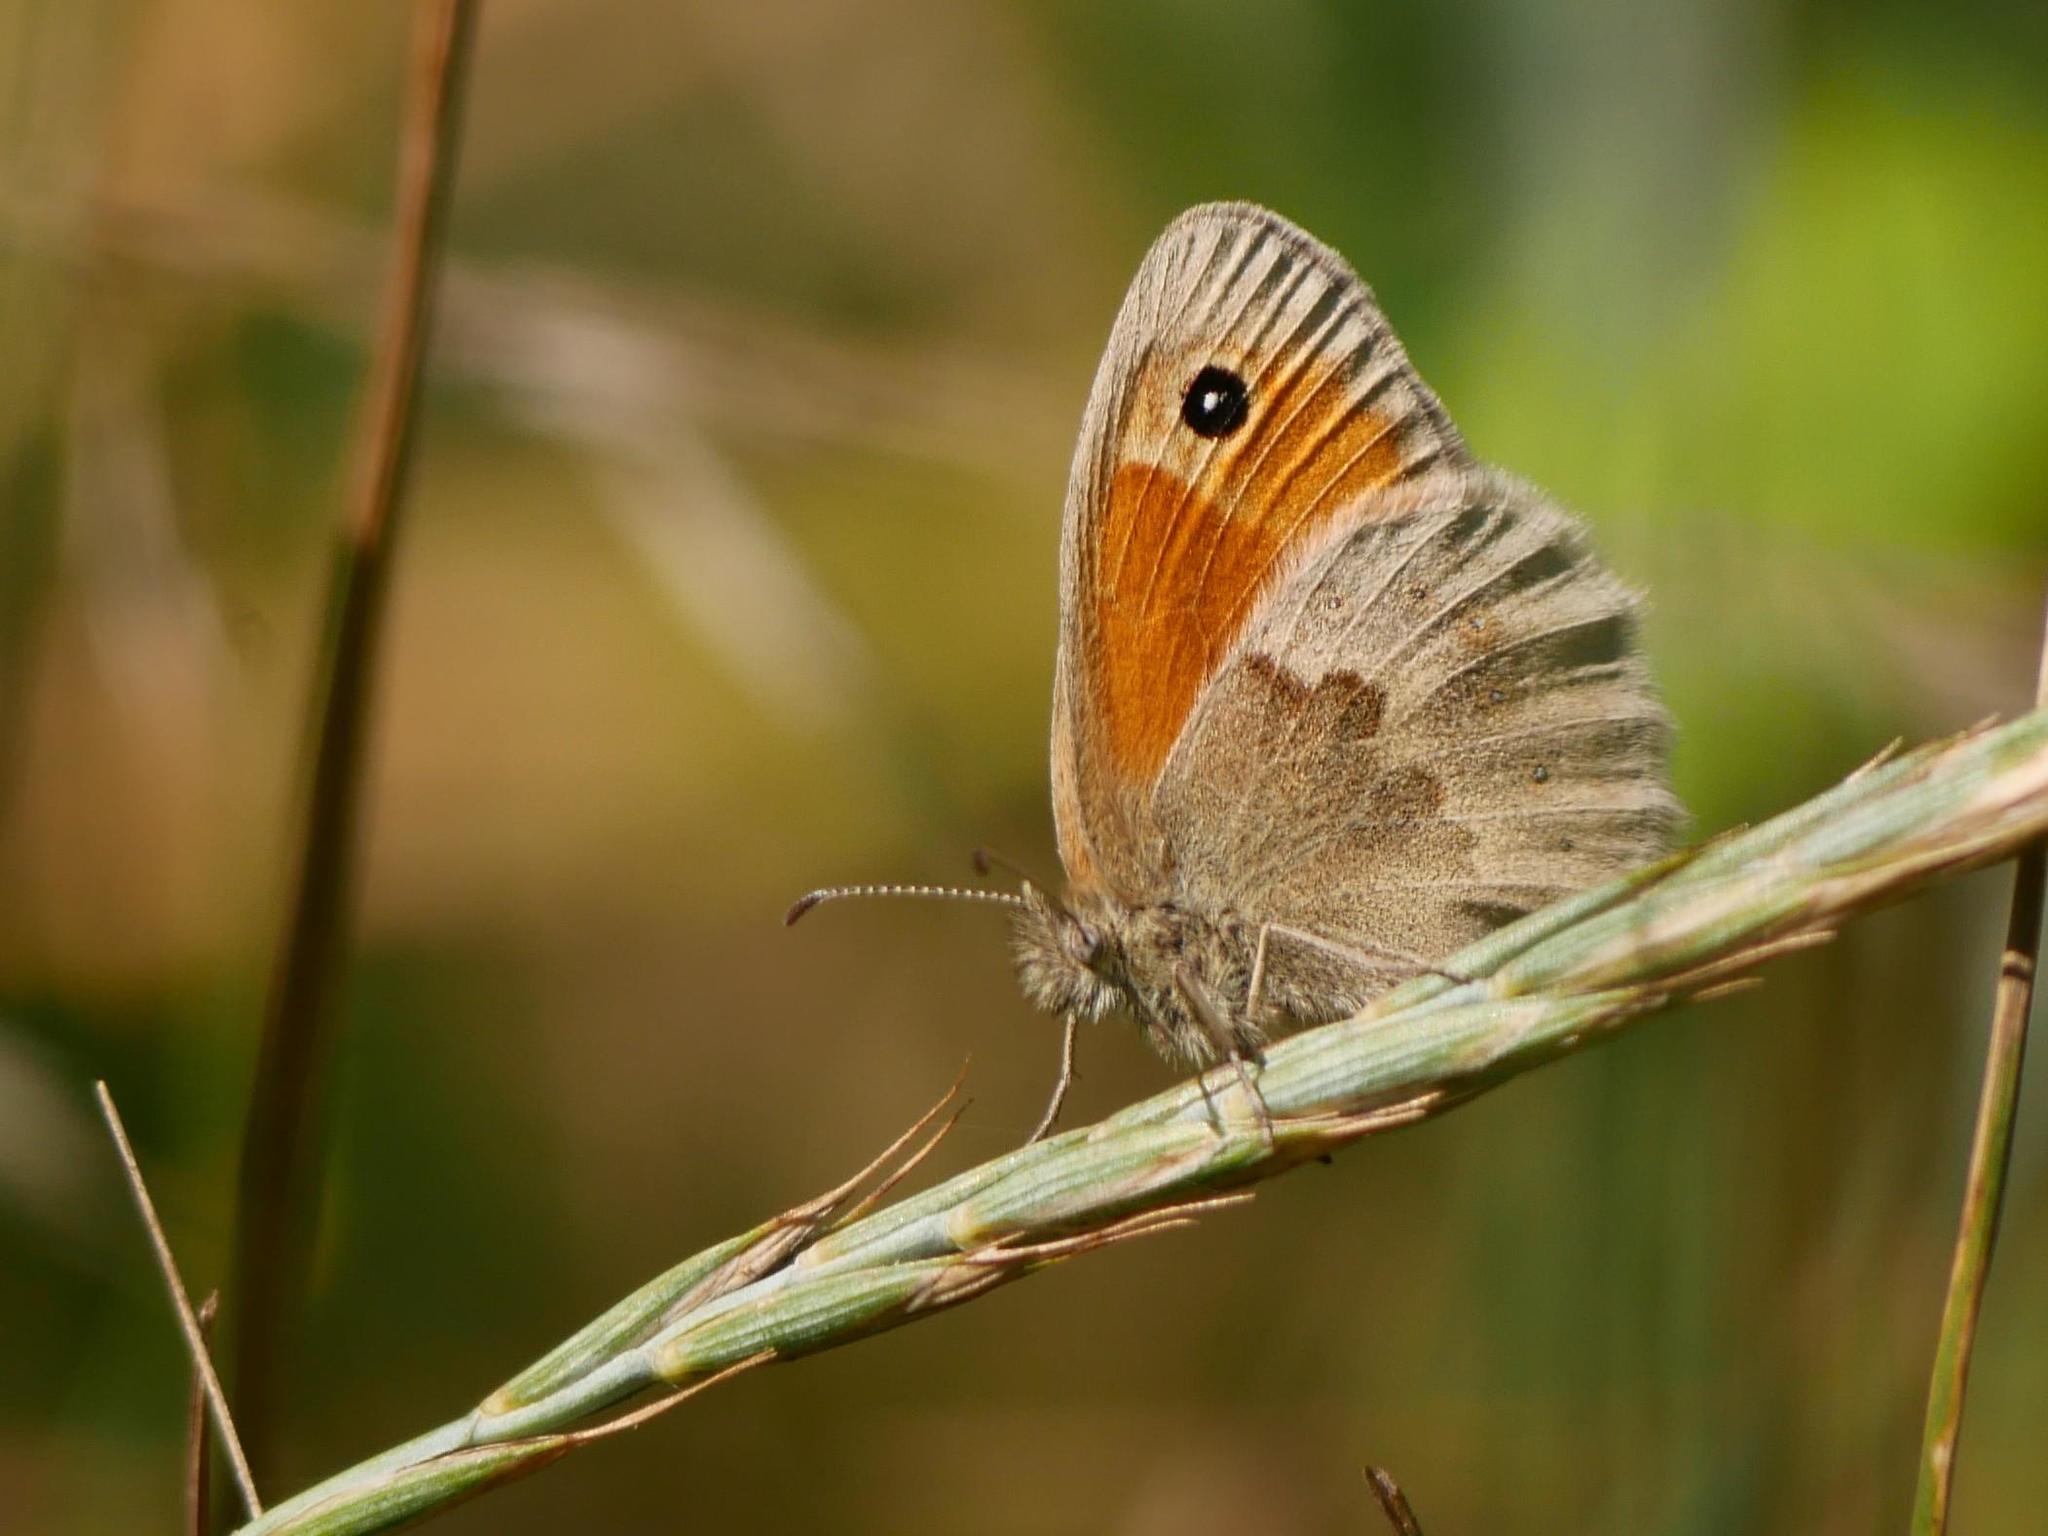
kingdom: Animalia
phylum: Arthropoda
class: Insecta
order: Lepidoptera
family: Nymphalidae
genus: Coenonympha
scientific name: Coenonympha pamphilus
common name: Small heath
